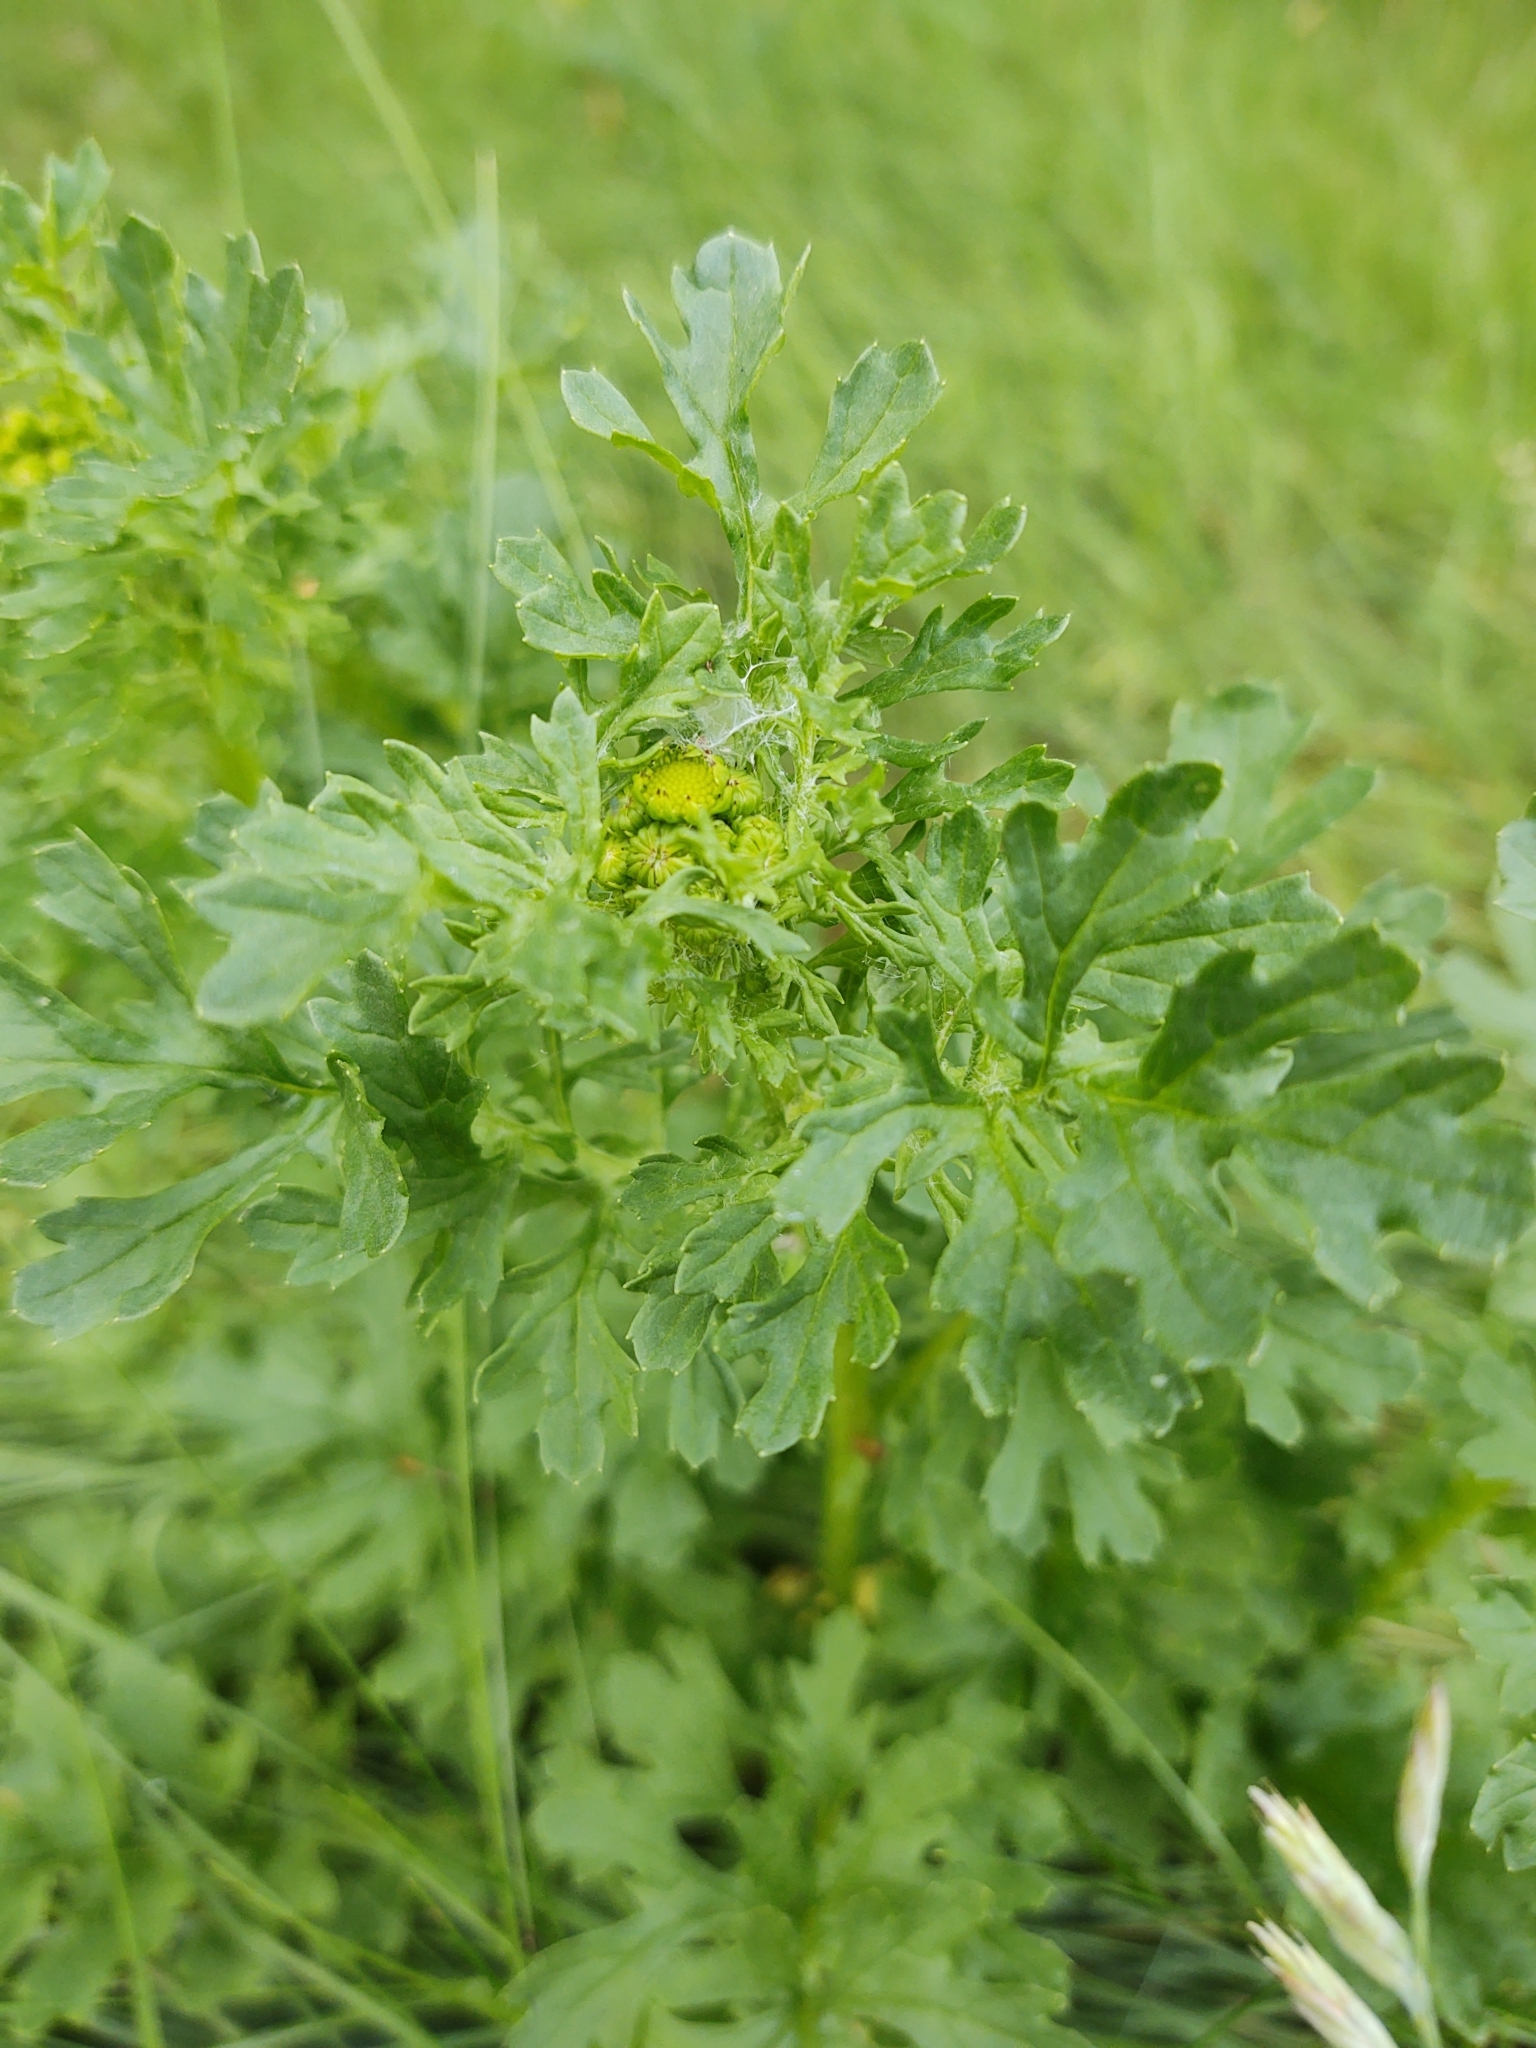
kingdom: Plantae
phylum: Tracheophyta
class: Magnoliopsida
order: Asterales
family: Asteraceae
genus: Jacobaea
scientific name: Jacobaea vulgaris
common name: Stinking willie
